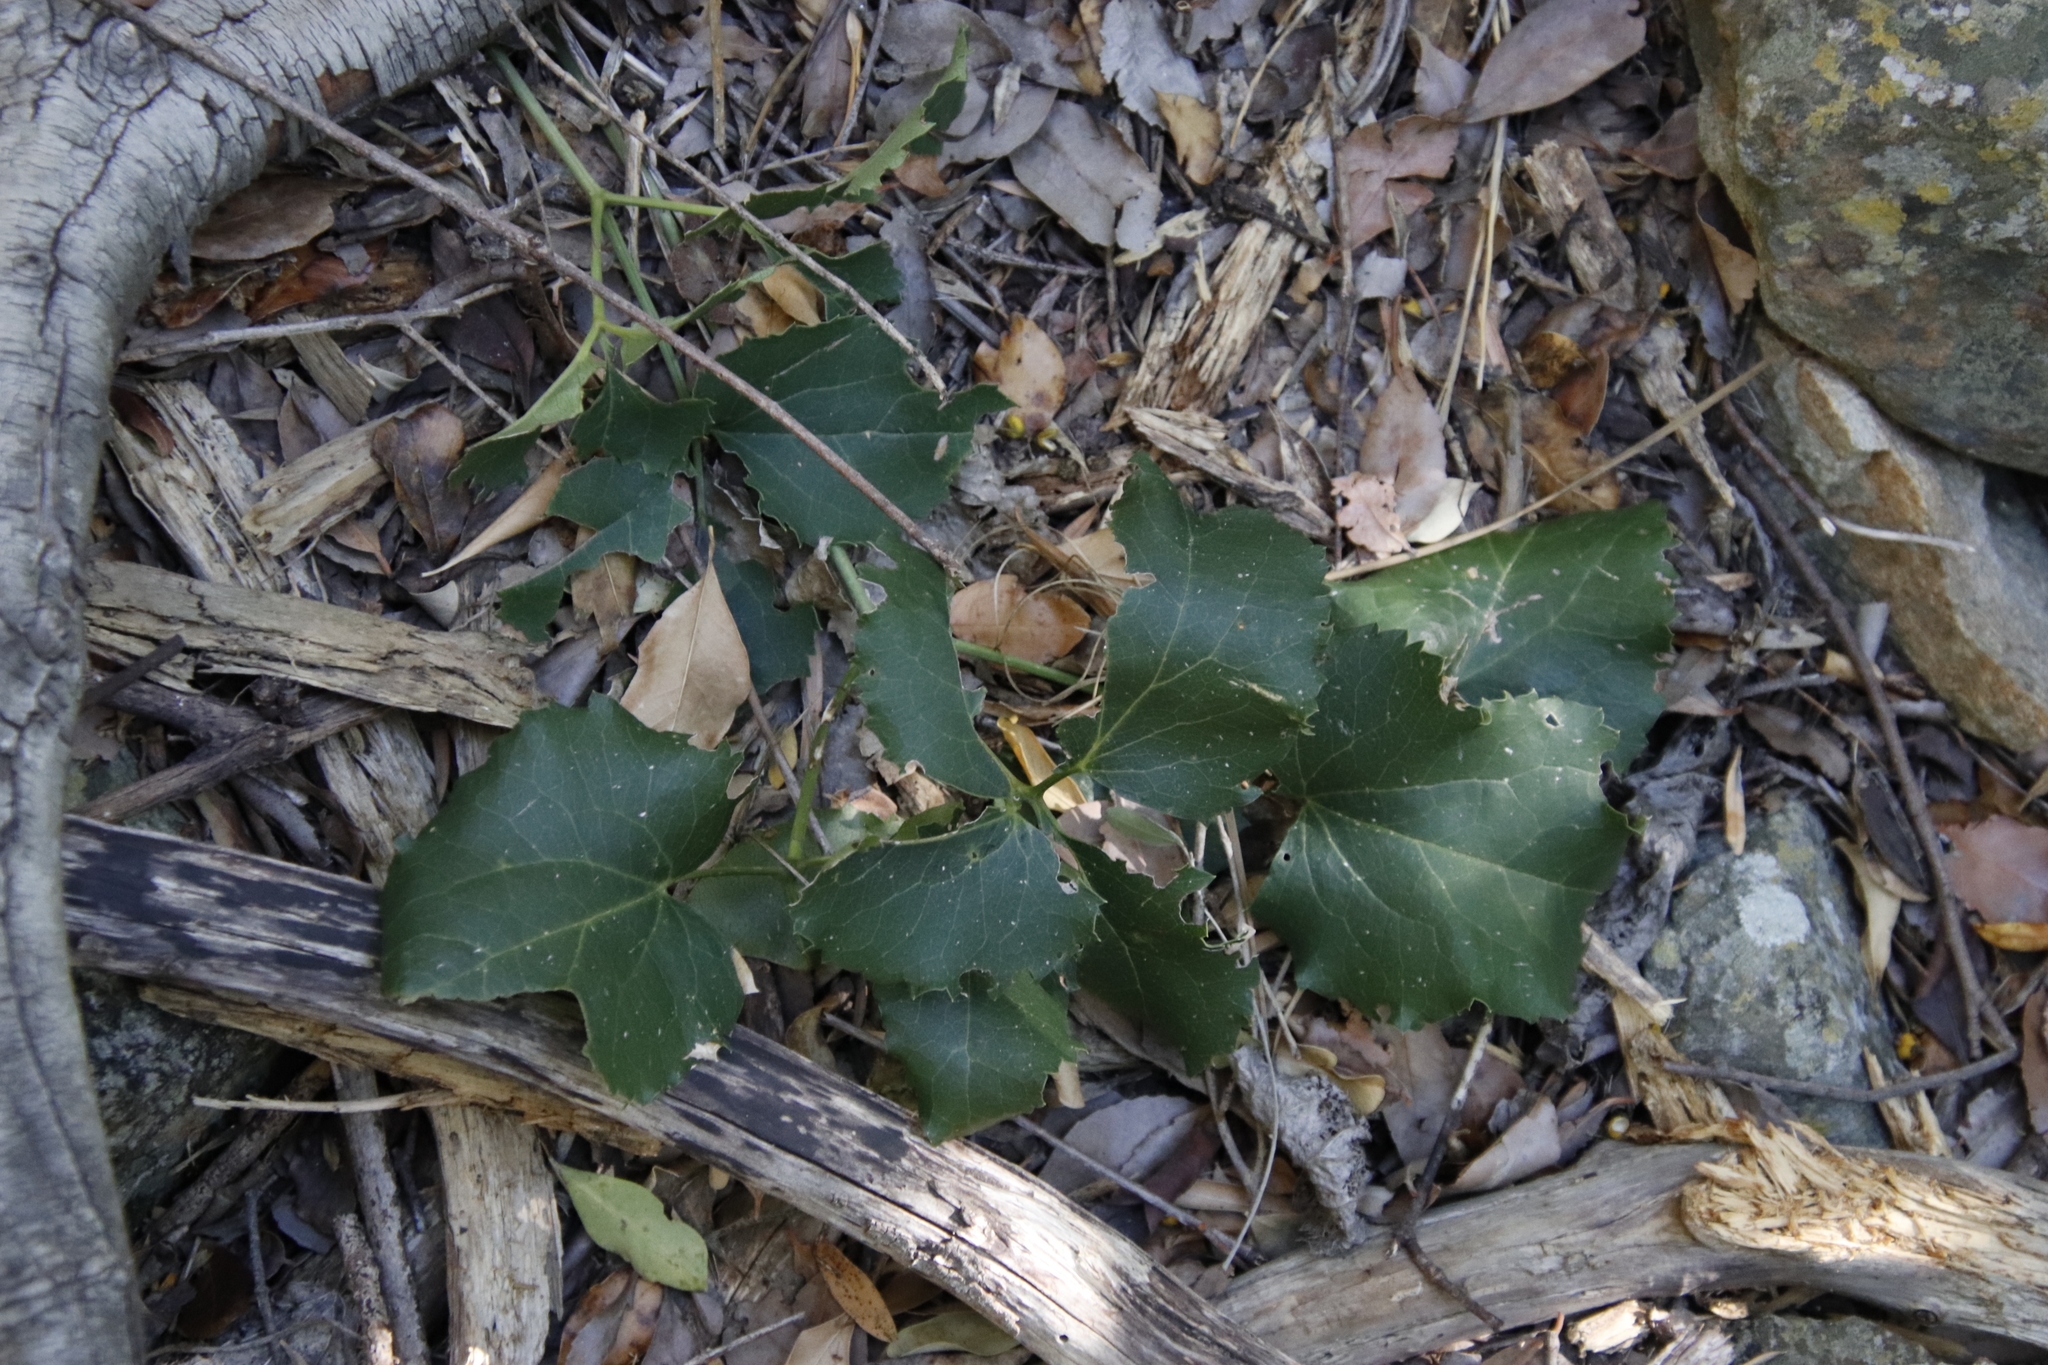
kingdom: Plantae
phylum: Tracheophyta
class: Magnoliopsida
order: Ranunculales
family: Ranunculaceae
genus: Knowltonia
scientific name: Knowltonia vesicatoria
